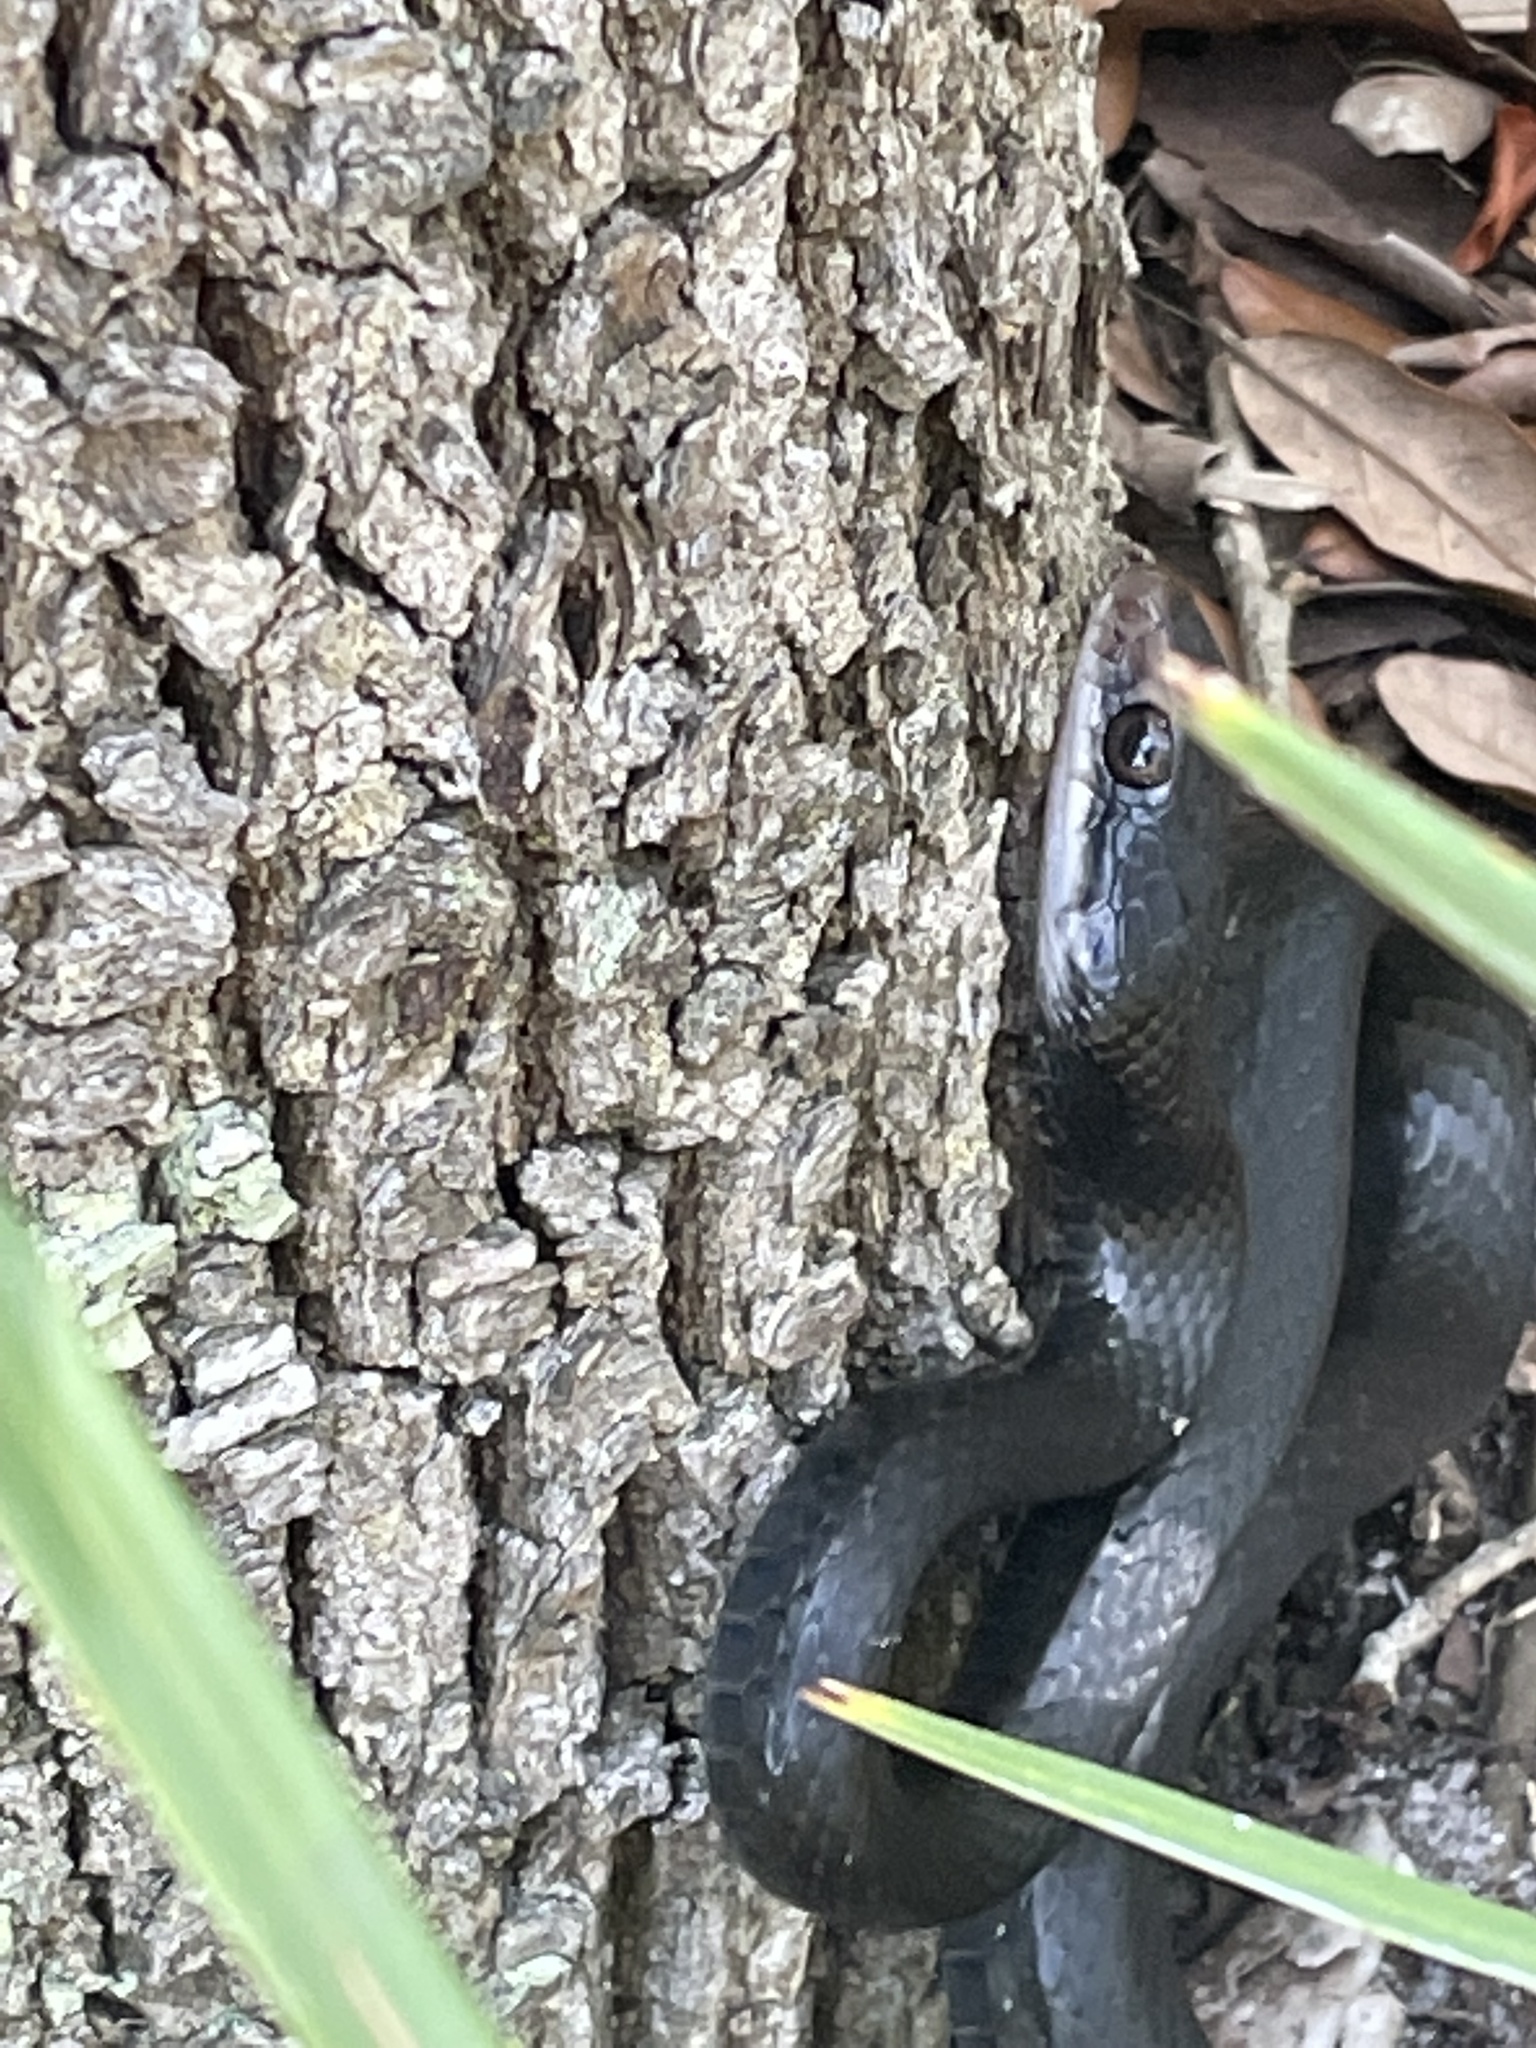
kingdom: Animalia
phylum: Chordata
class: Squamata
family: Colubridae
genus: Coluber
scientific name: Coluber constrictor
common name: Eastern racer
